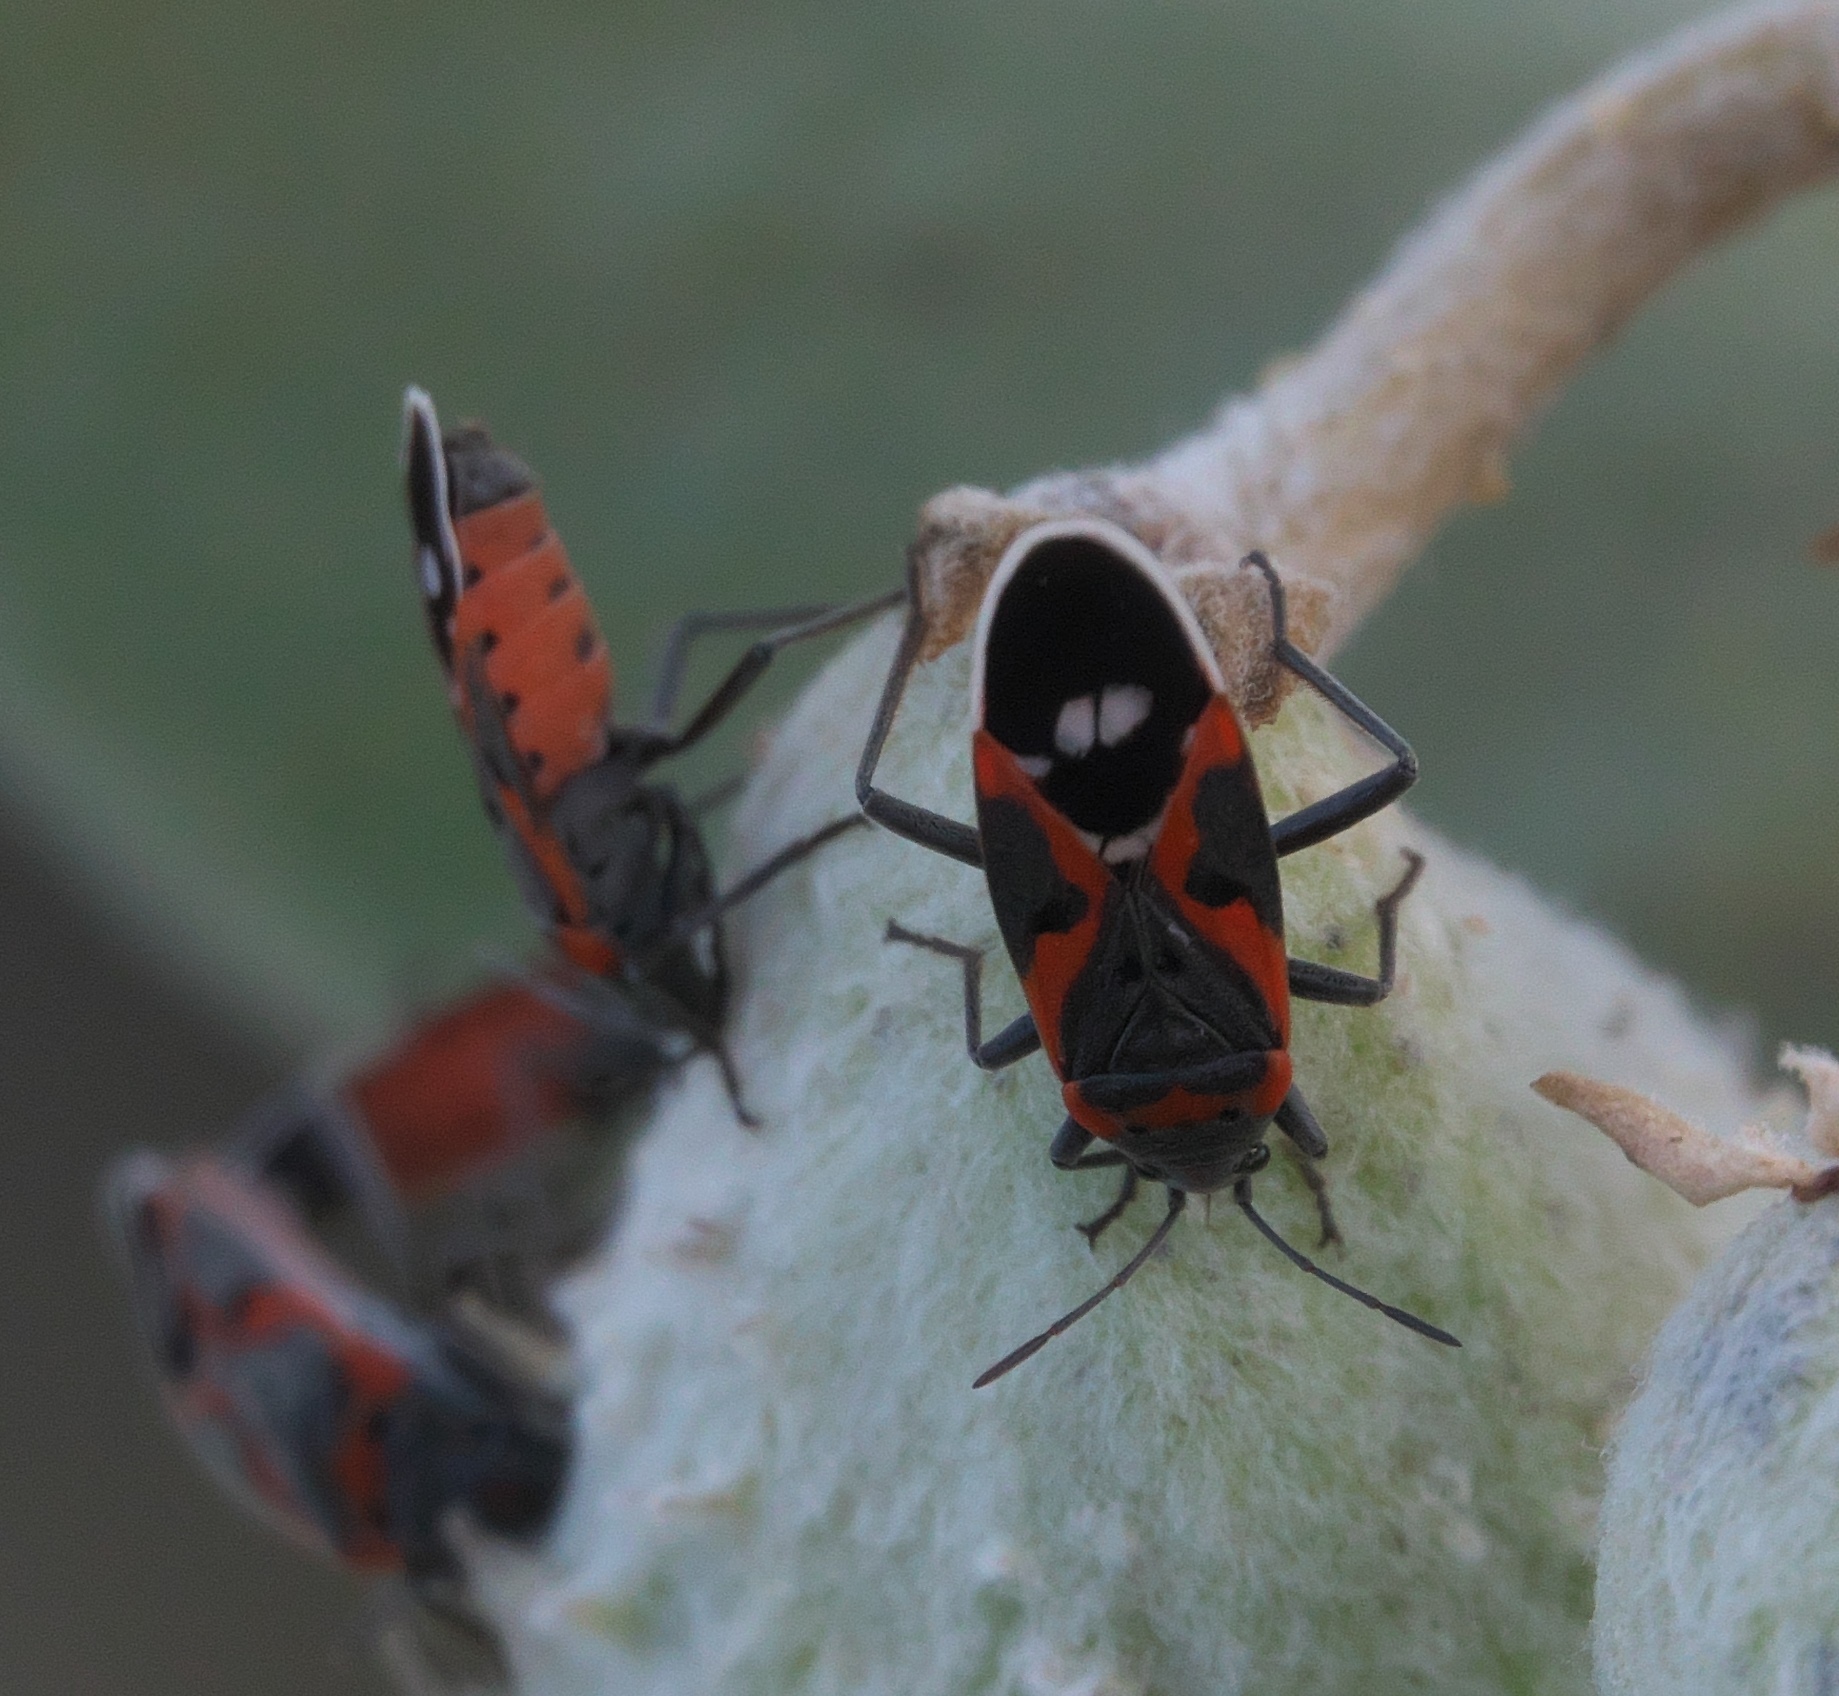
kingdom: Animalia
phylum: Arthropoda
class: Insecta
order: Hemiptera
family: Lygaeidae
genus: Lygaeus
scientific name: Lygaeus kalmii
